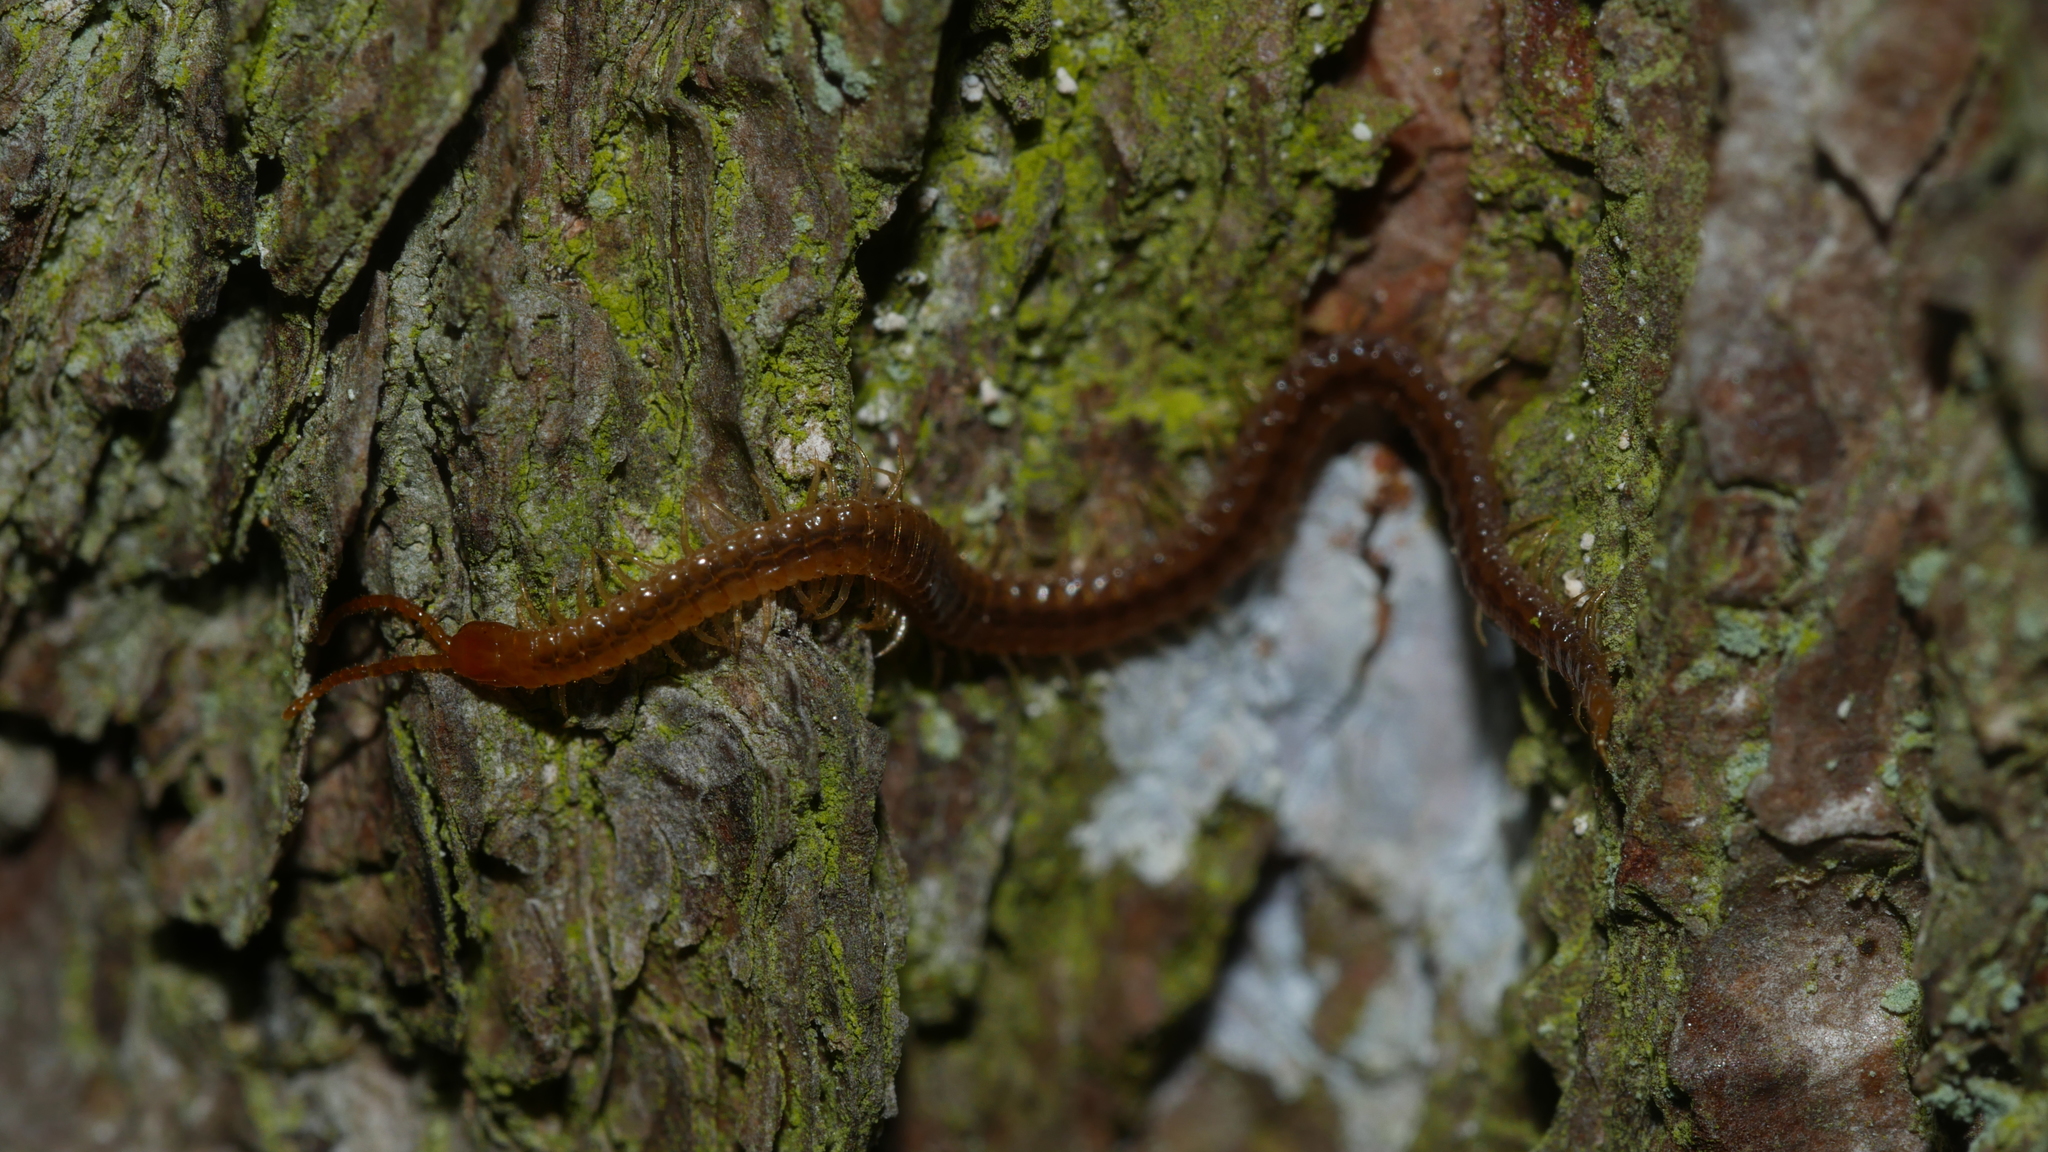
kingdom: Animalia
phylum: Arthropoda
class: Chilopoda
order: Geophilomorpha
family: Geophilidae
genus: Geophilus
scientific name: Geophilus vittatus
